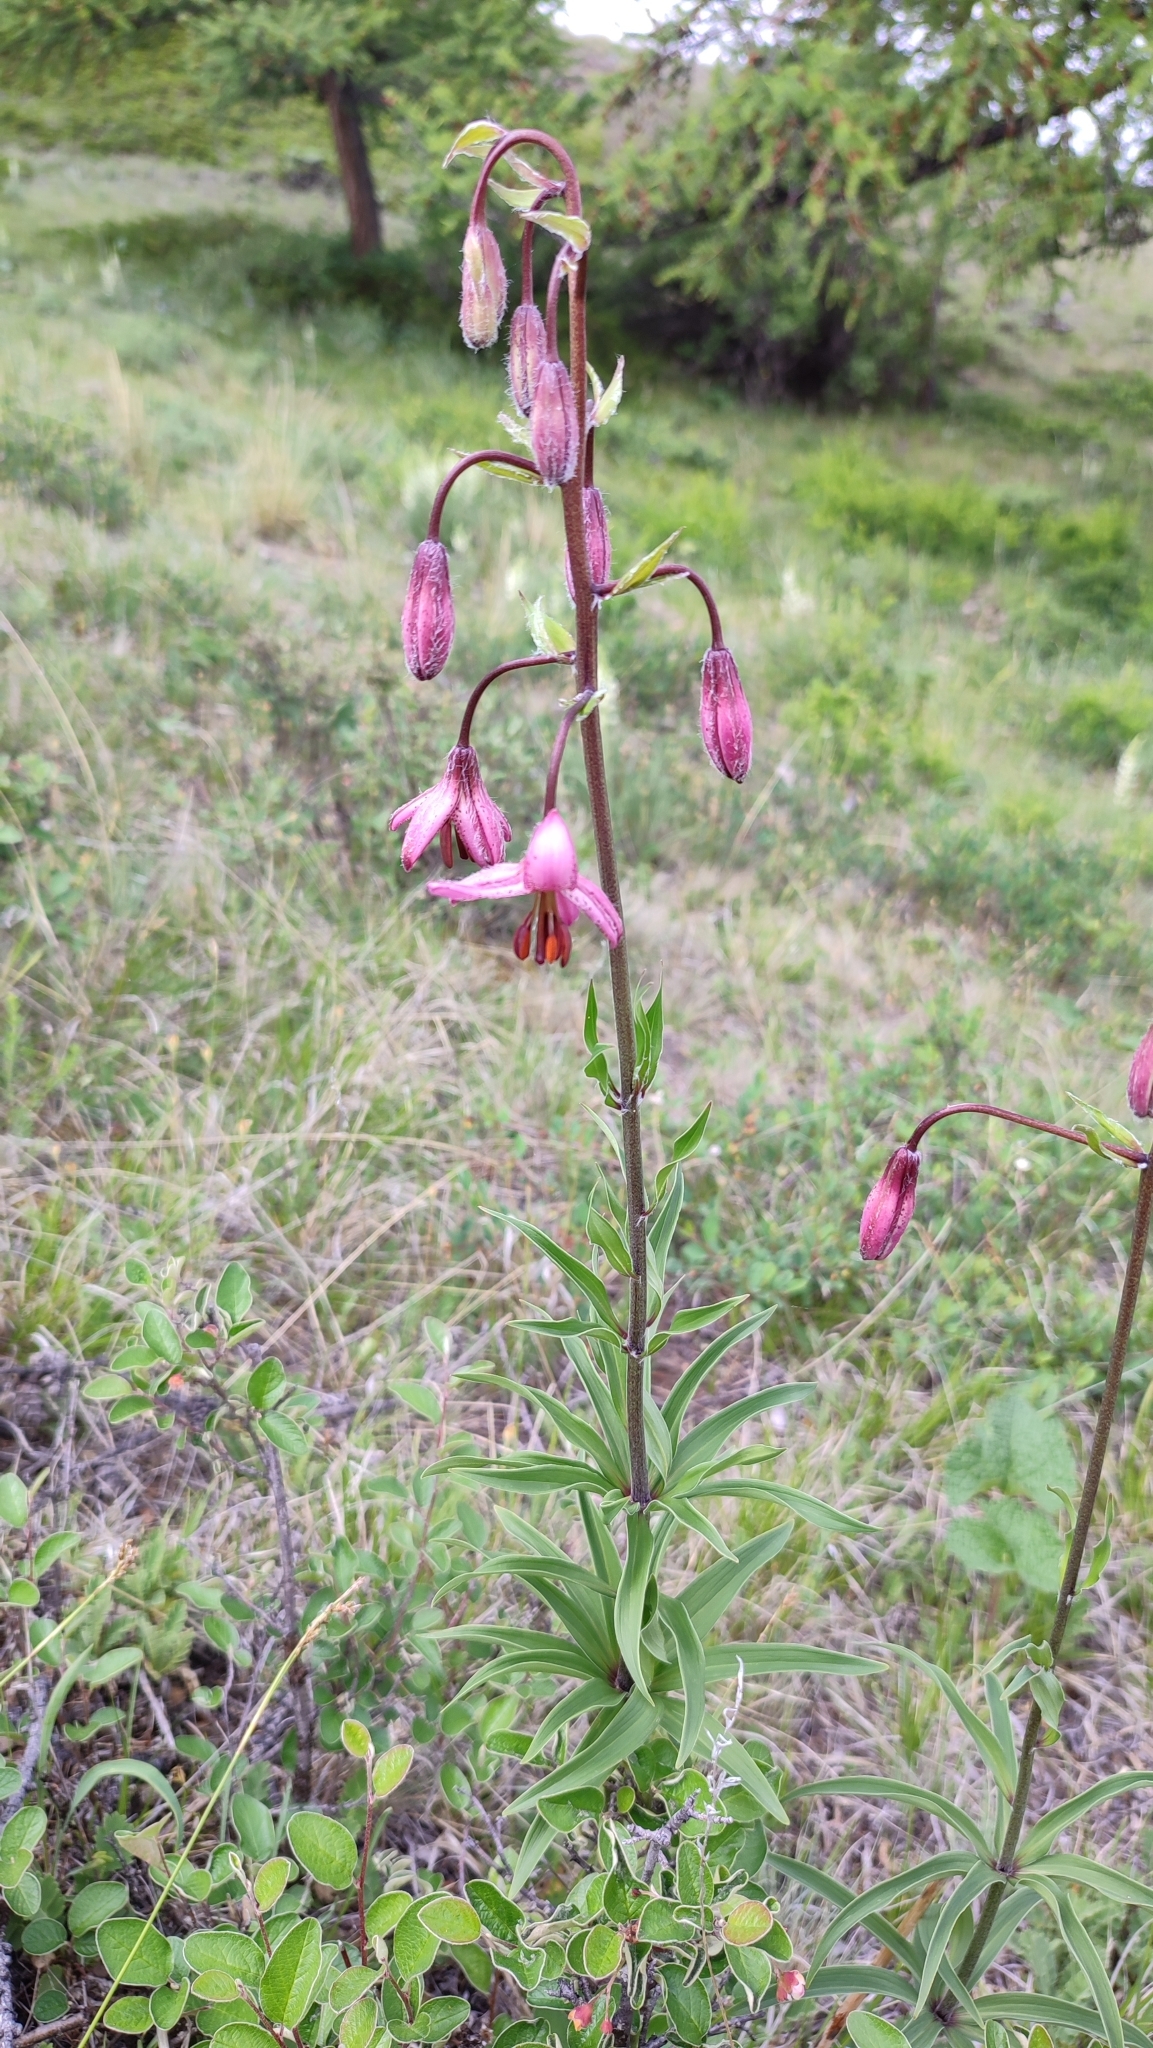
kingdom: Plantae
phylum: Tracheophyta
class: Liliopsida
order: Liliales
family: Liliaceae
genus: Lilium
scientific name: Lilium martagon
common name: Martagon lily
